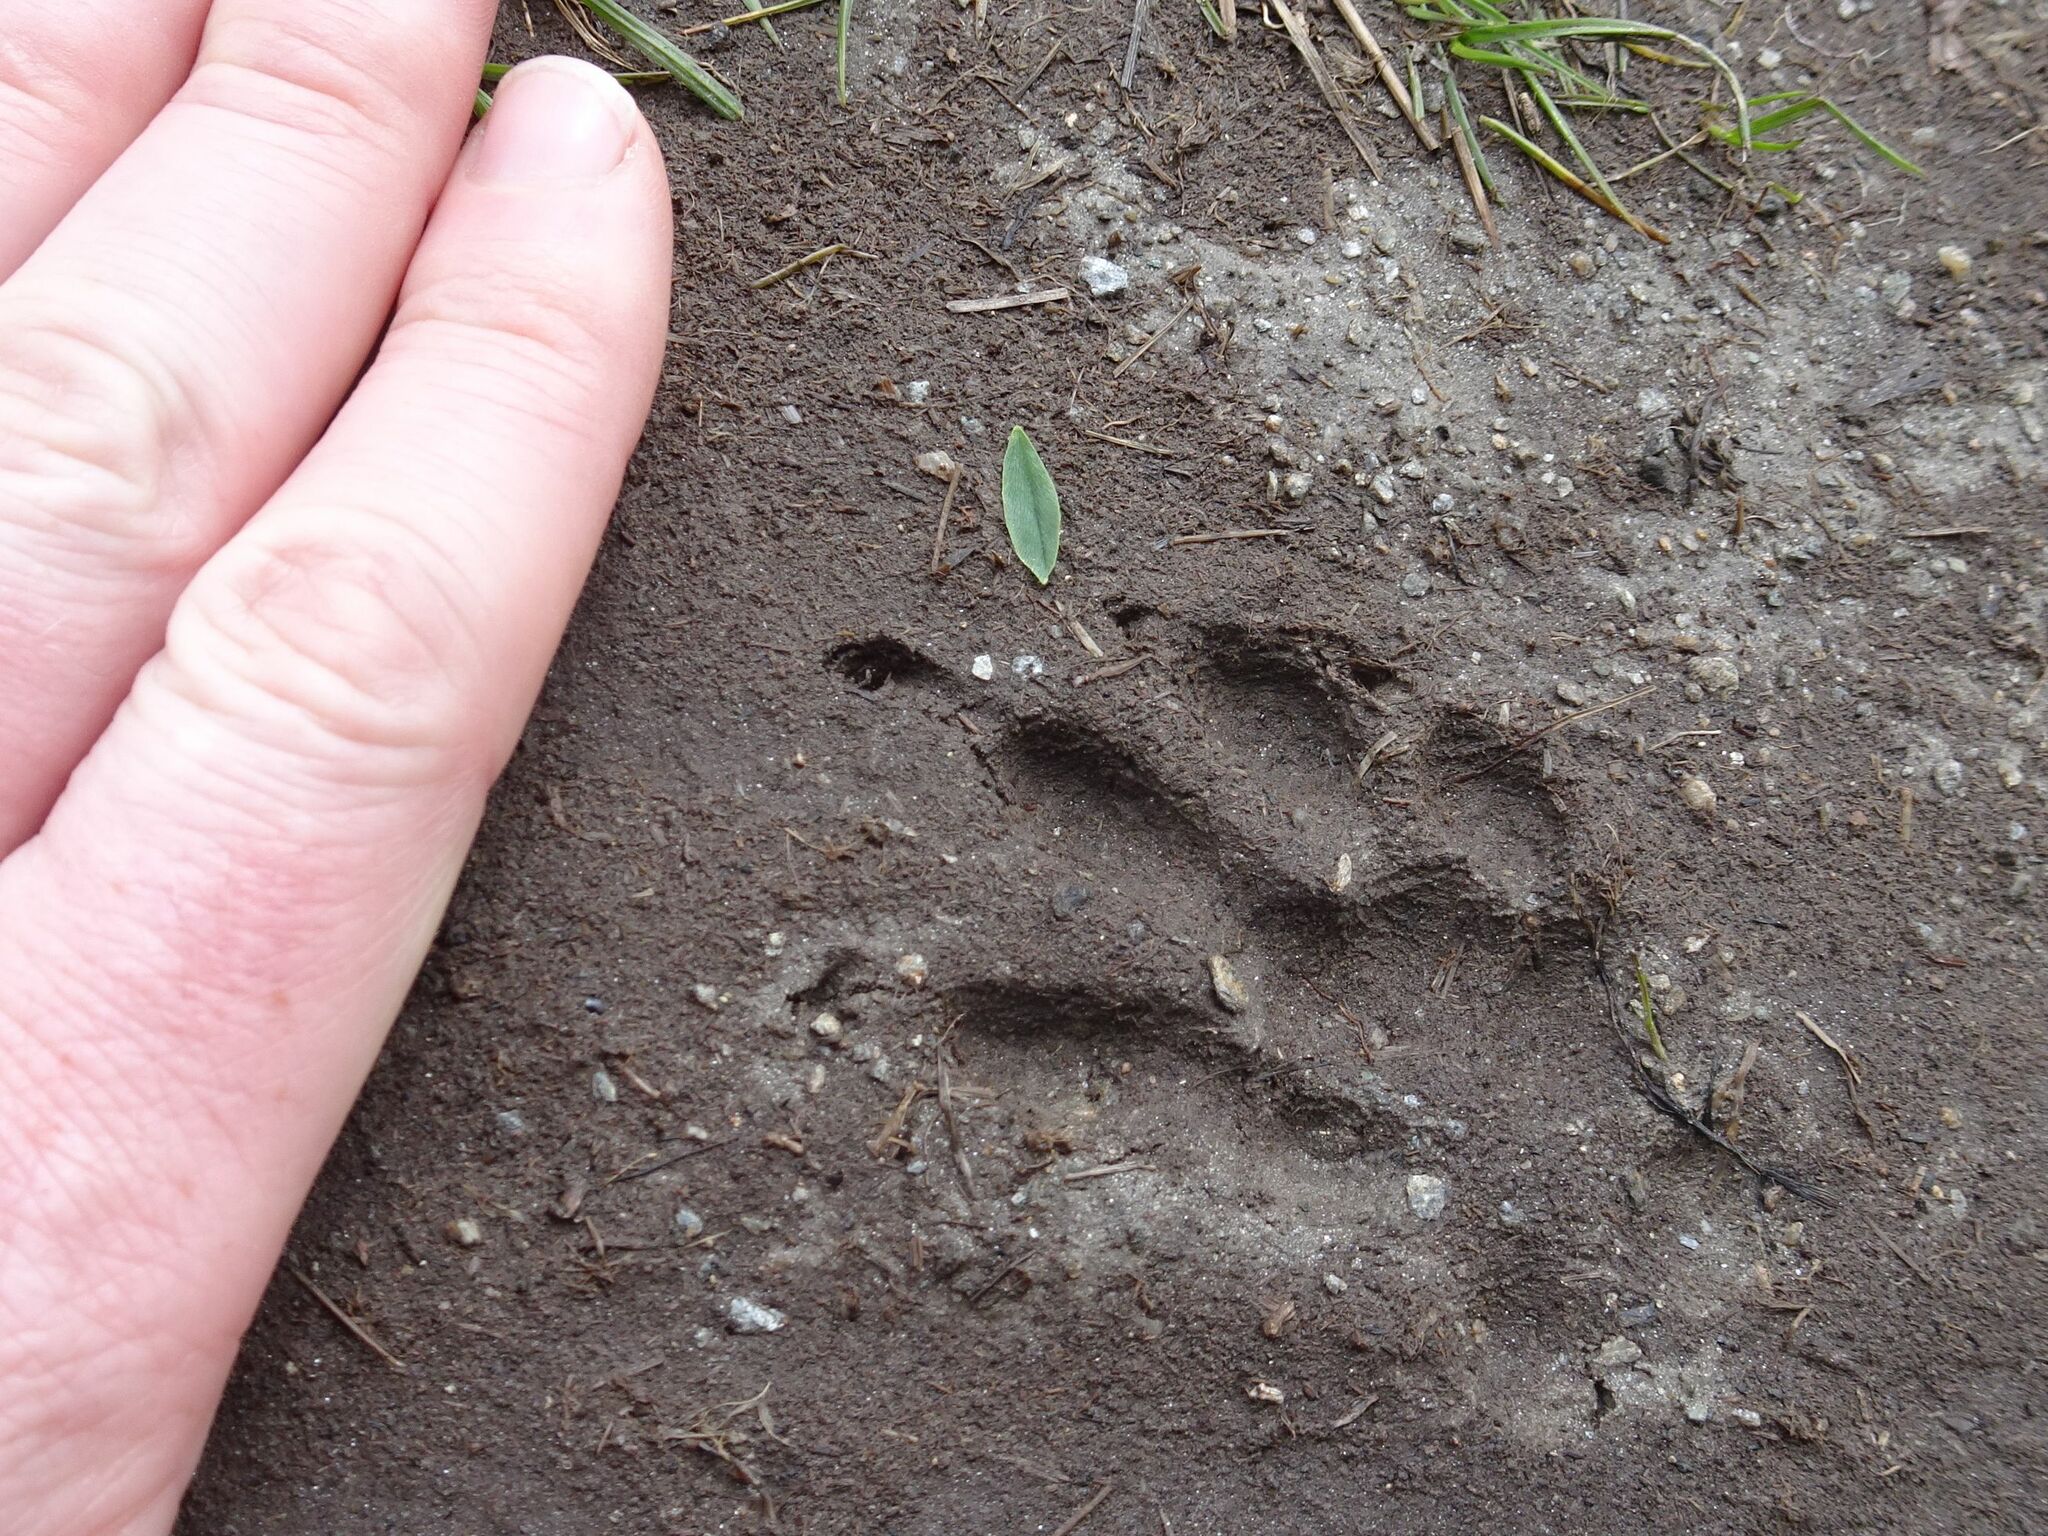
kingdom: Animalia
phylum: Chordata
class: Mammalia
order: Rodentia
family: Sciuridae
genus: Marmota
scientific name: Marmota marmota
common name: Alpine marmot
